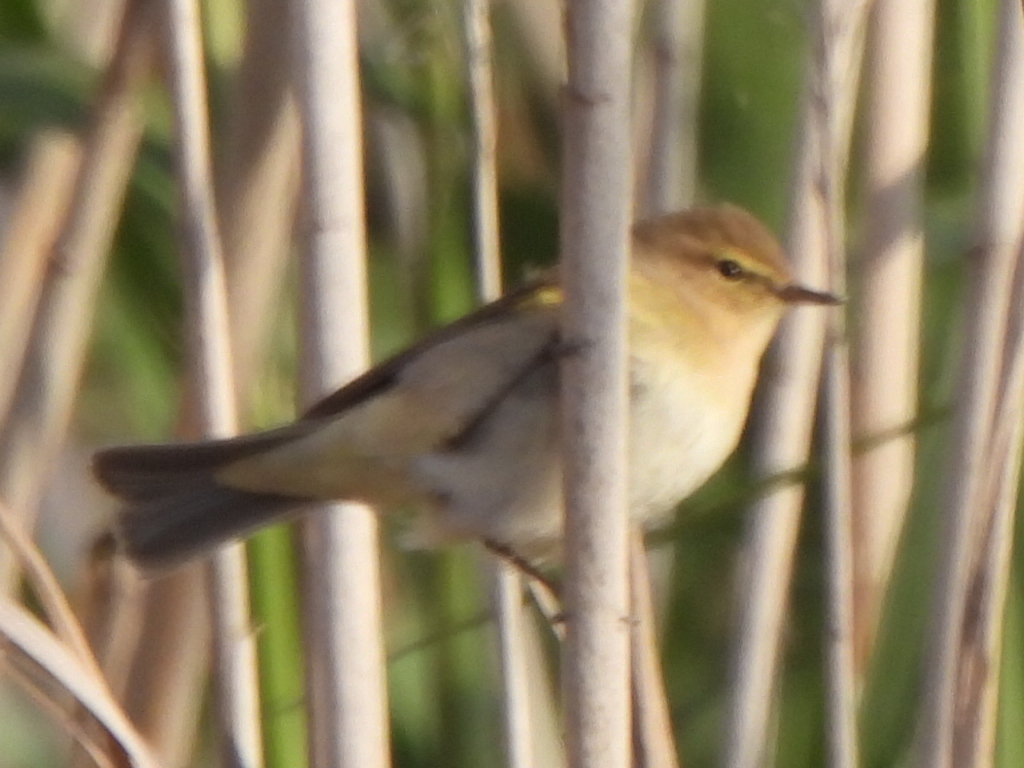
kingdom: Animalia
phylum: Chordata
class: Aves
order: Passeriformes
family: Phylloscopidae
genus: Phylloscopus
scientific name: Phylloscopus collybita
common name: Common chiffchaff
